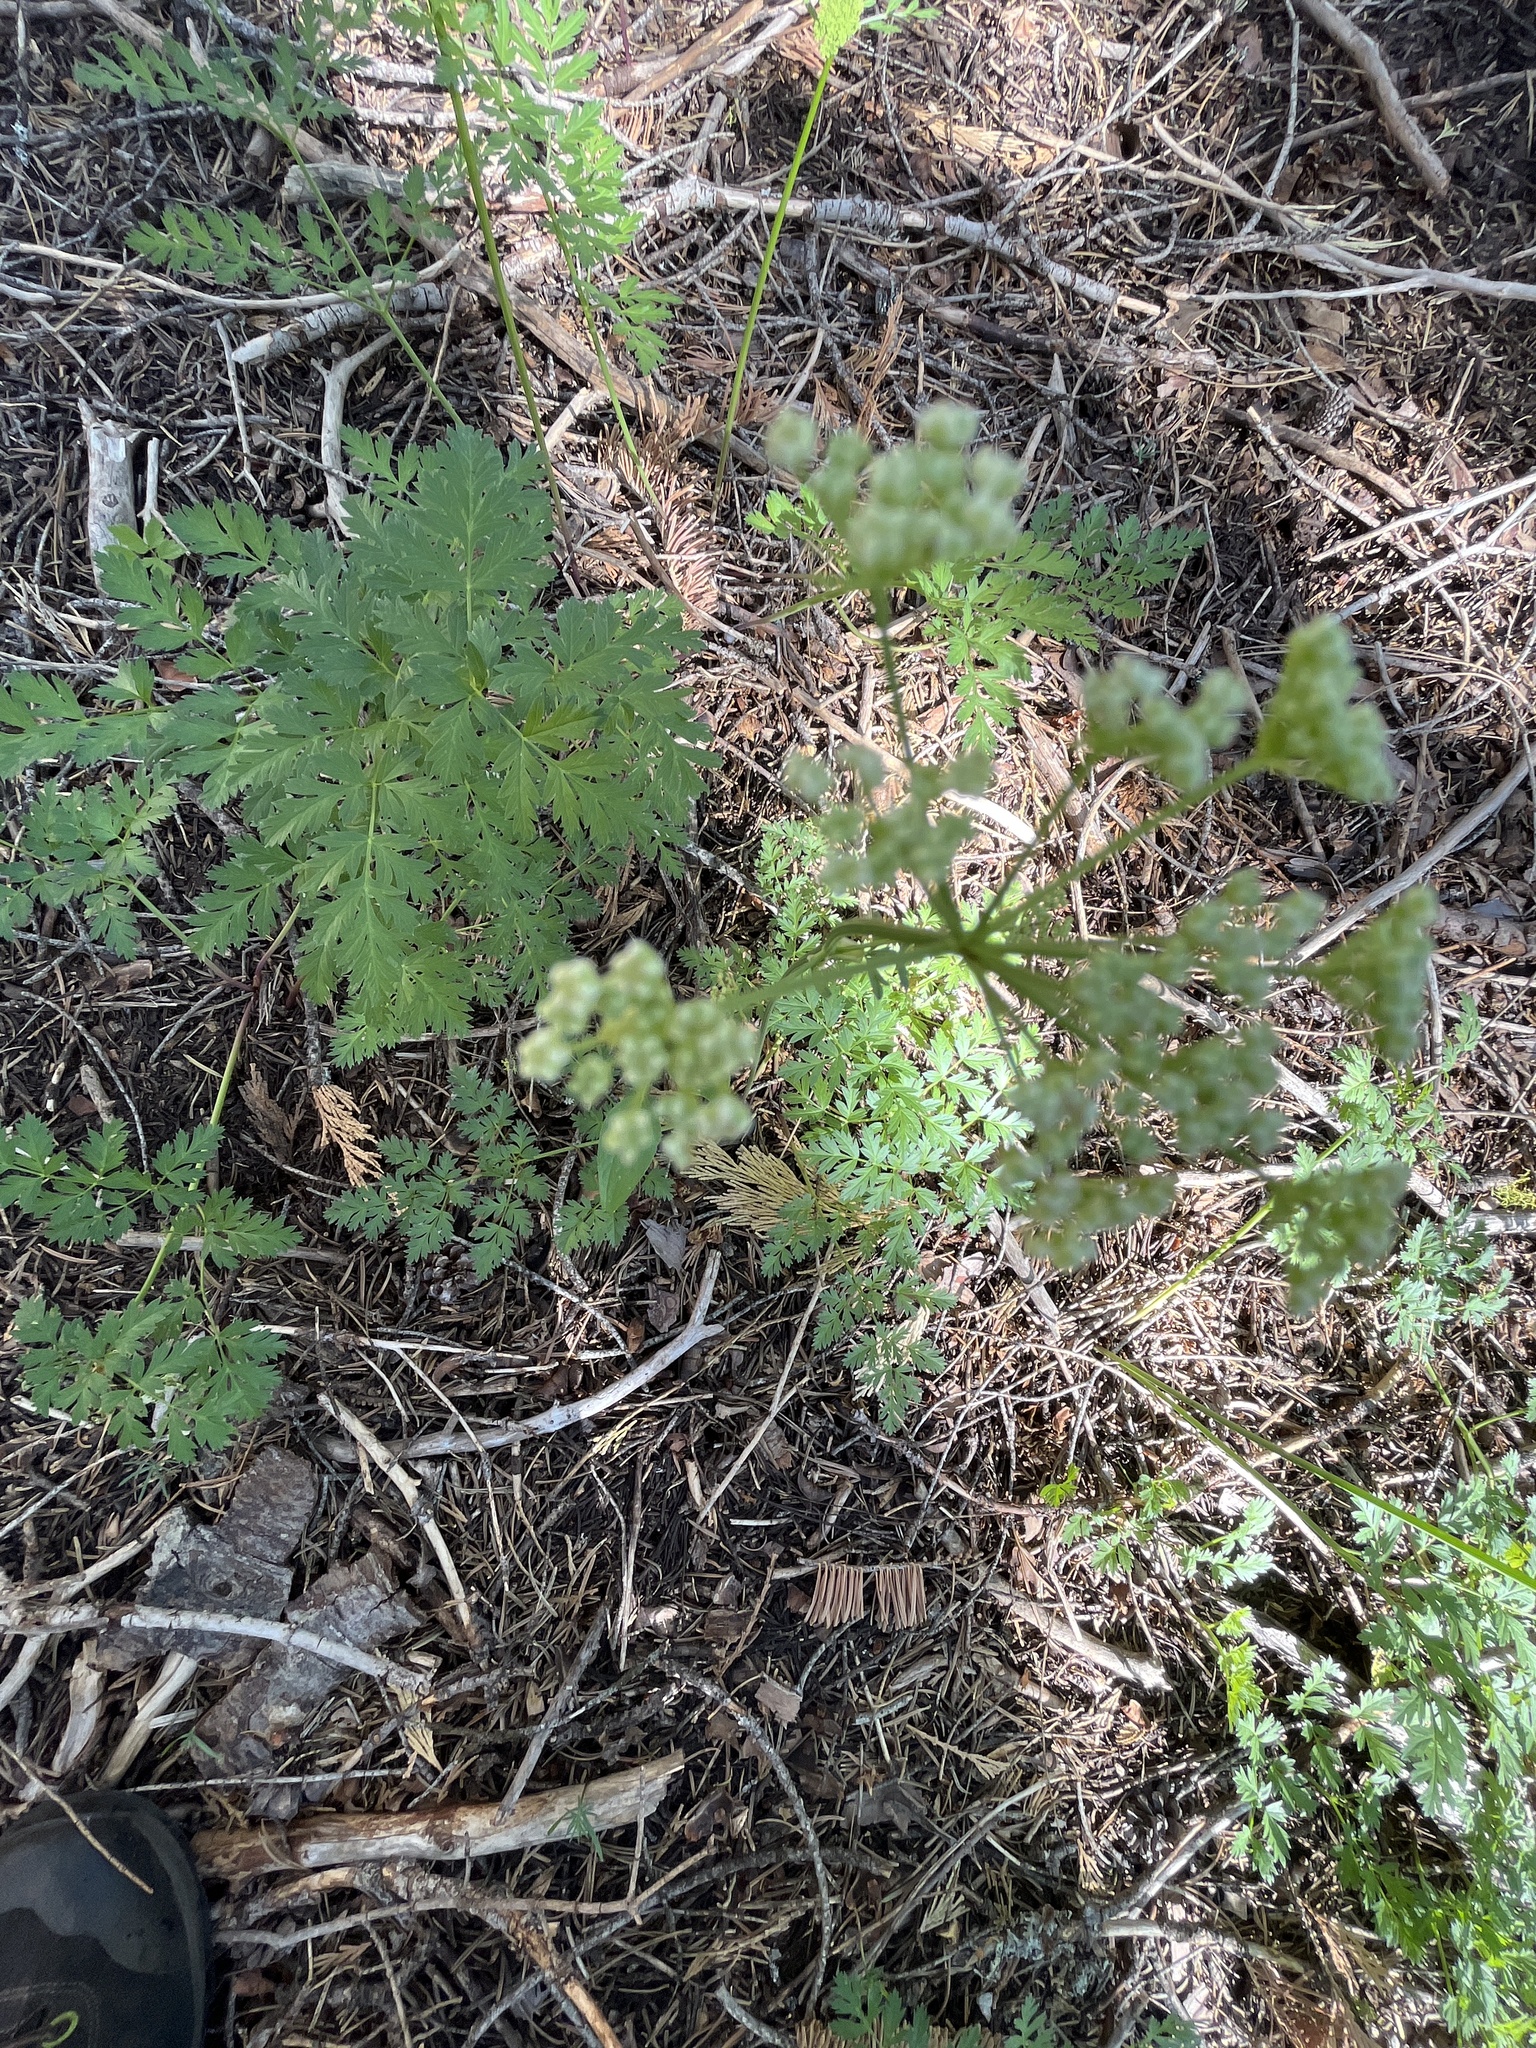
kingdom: Plantae
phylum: Tracheophyta
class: Magnoliopsida
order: Apiales
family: Apiaceae
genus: Ligusticum
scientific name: Ligusticum grayi
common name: Gray's licorice-root
